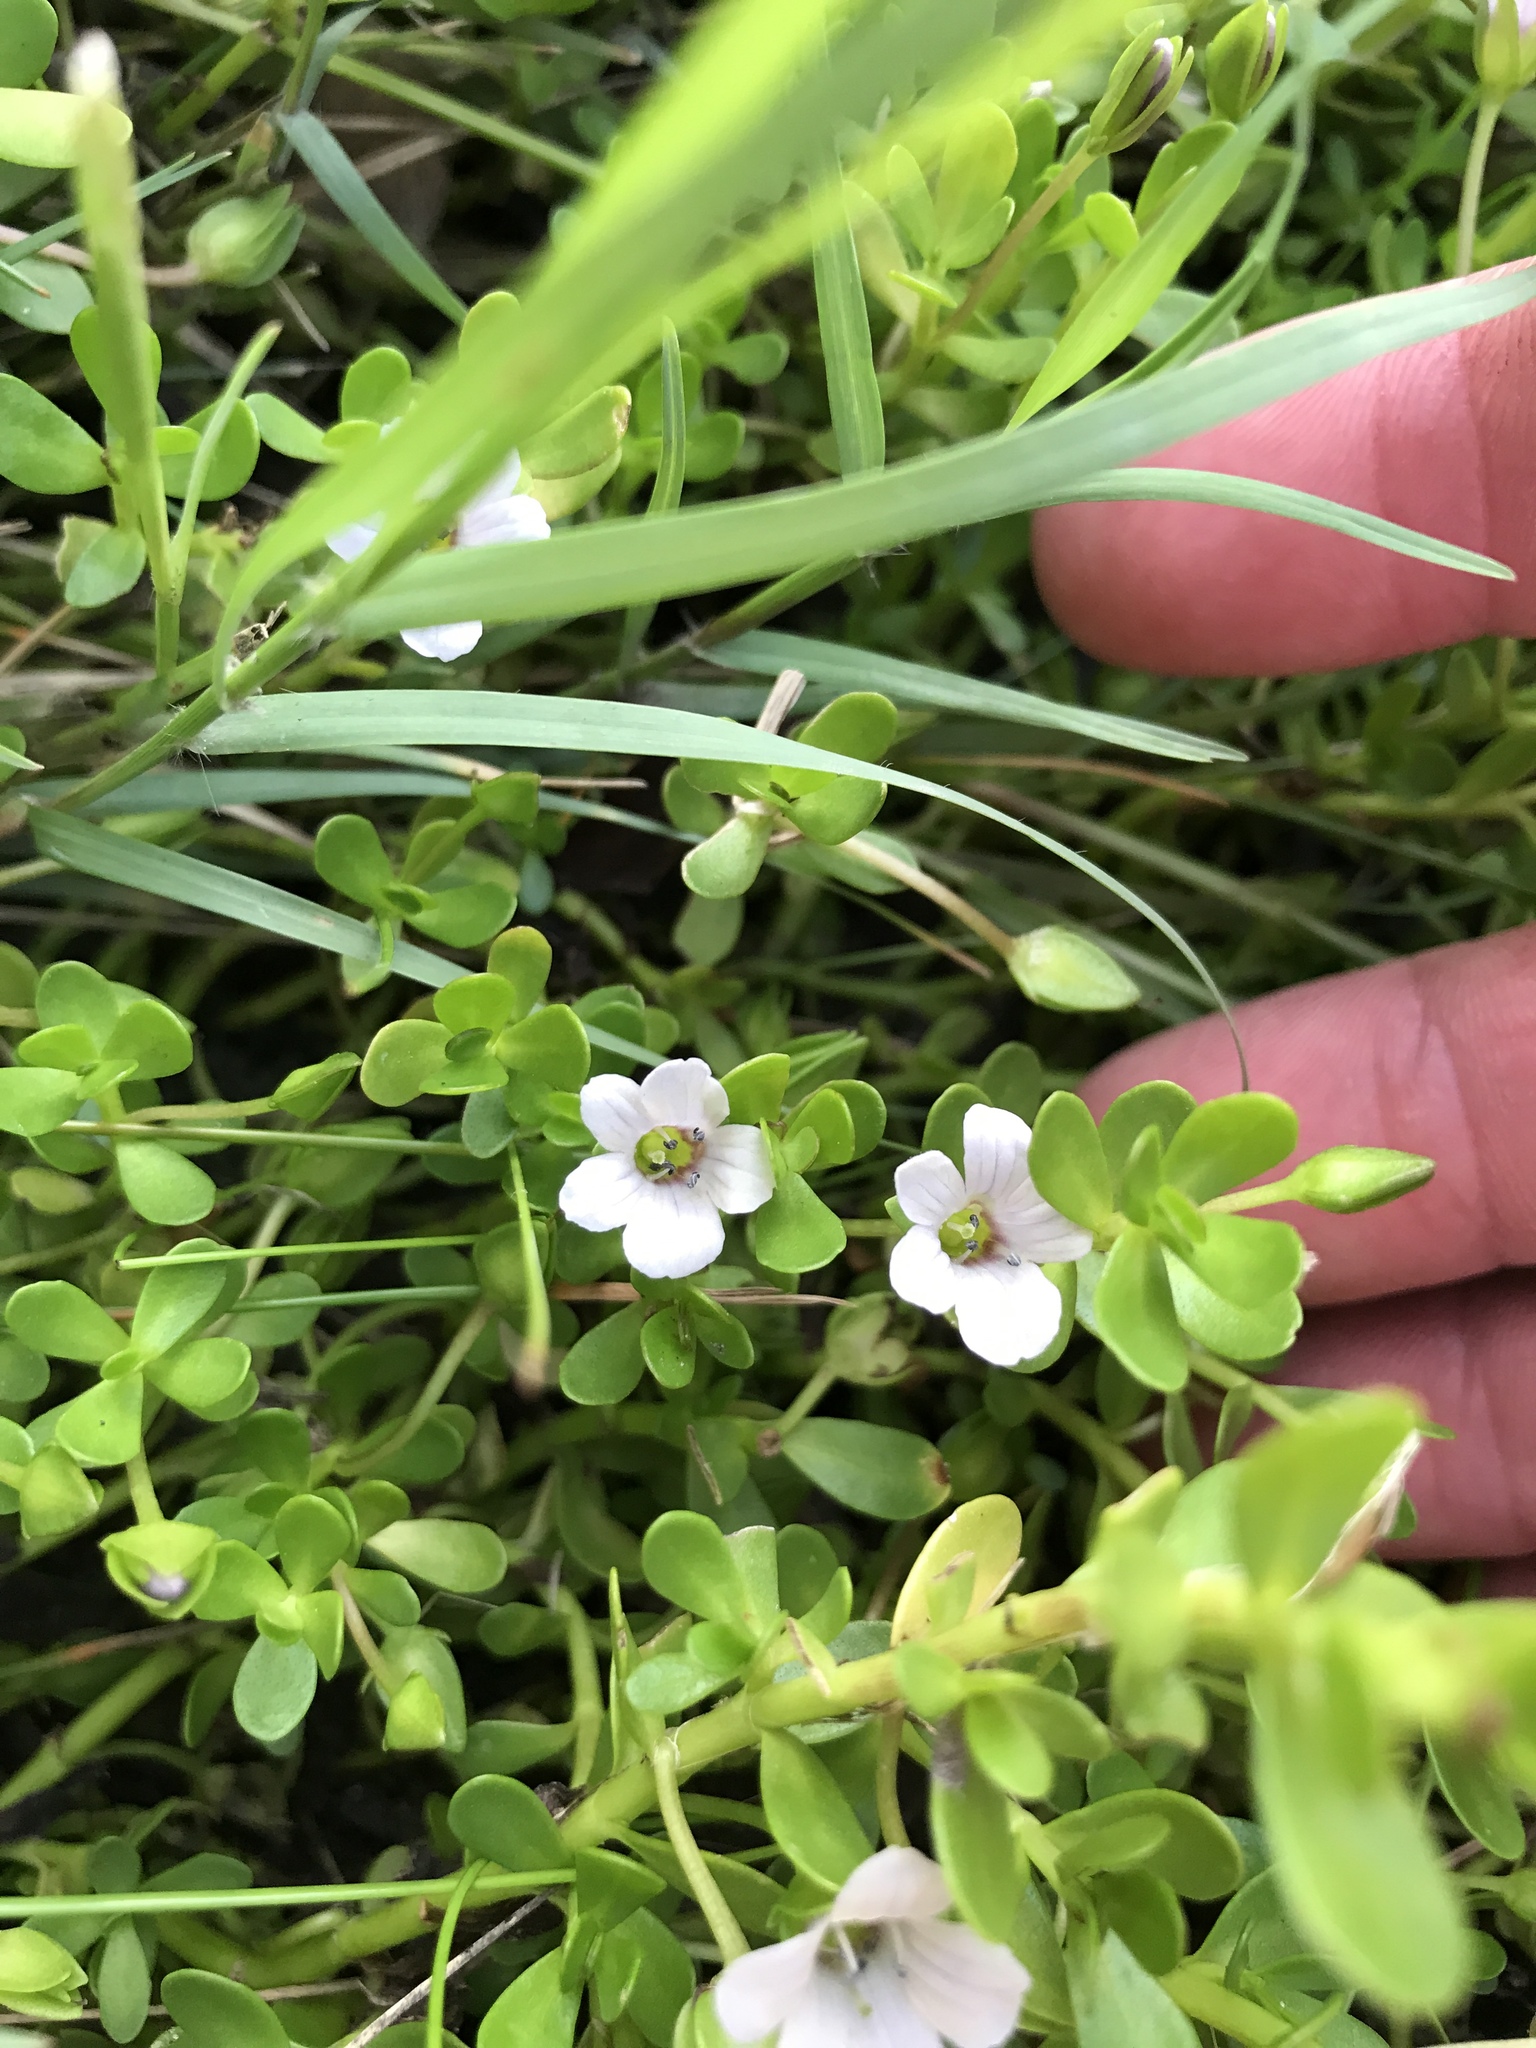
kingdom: Plantae
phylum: Tracheophyta
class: Magnoliopsida
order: Lamiales
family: Plantaginaceae
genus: Bacopa
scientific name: Bacopa monnieri
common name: Indian-pennywort
